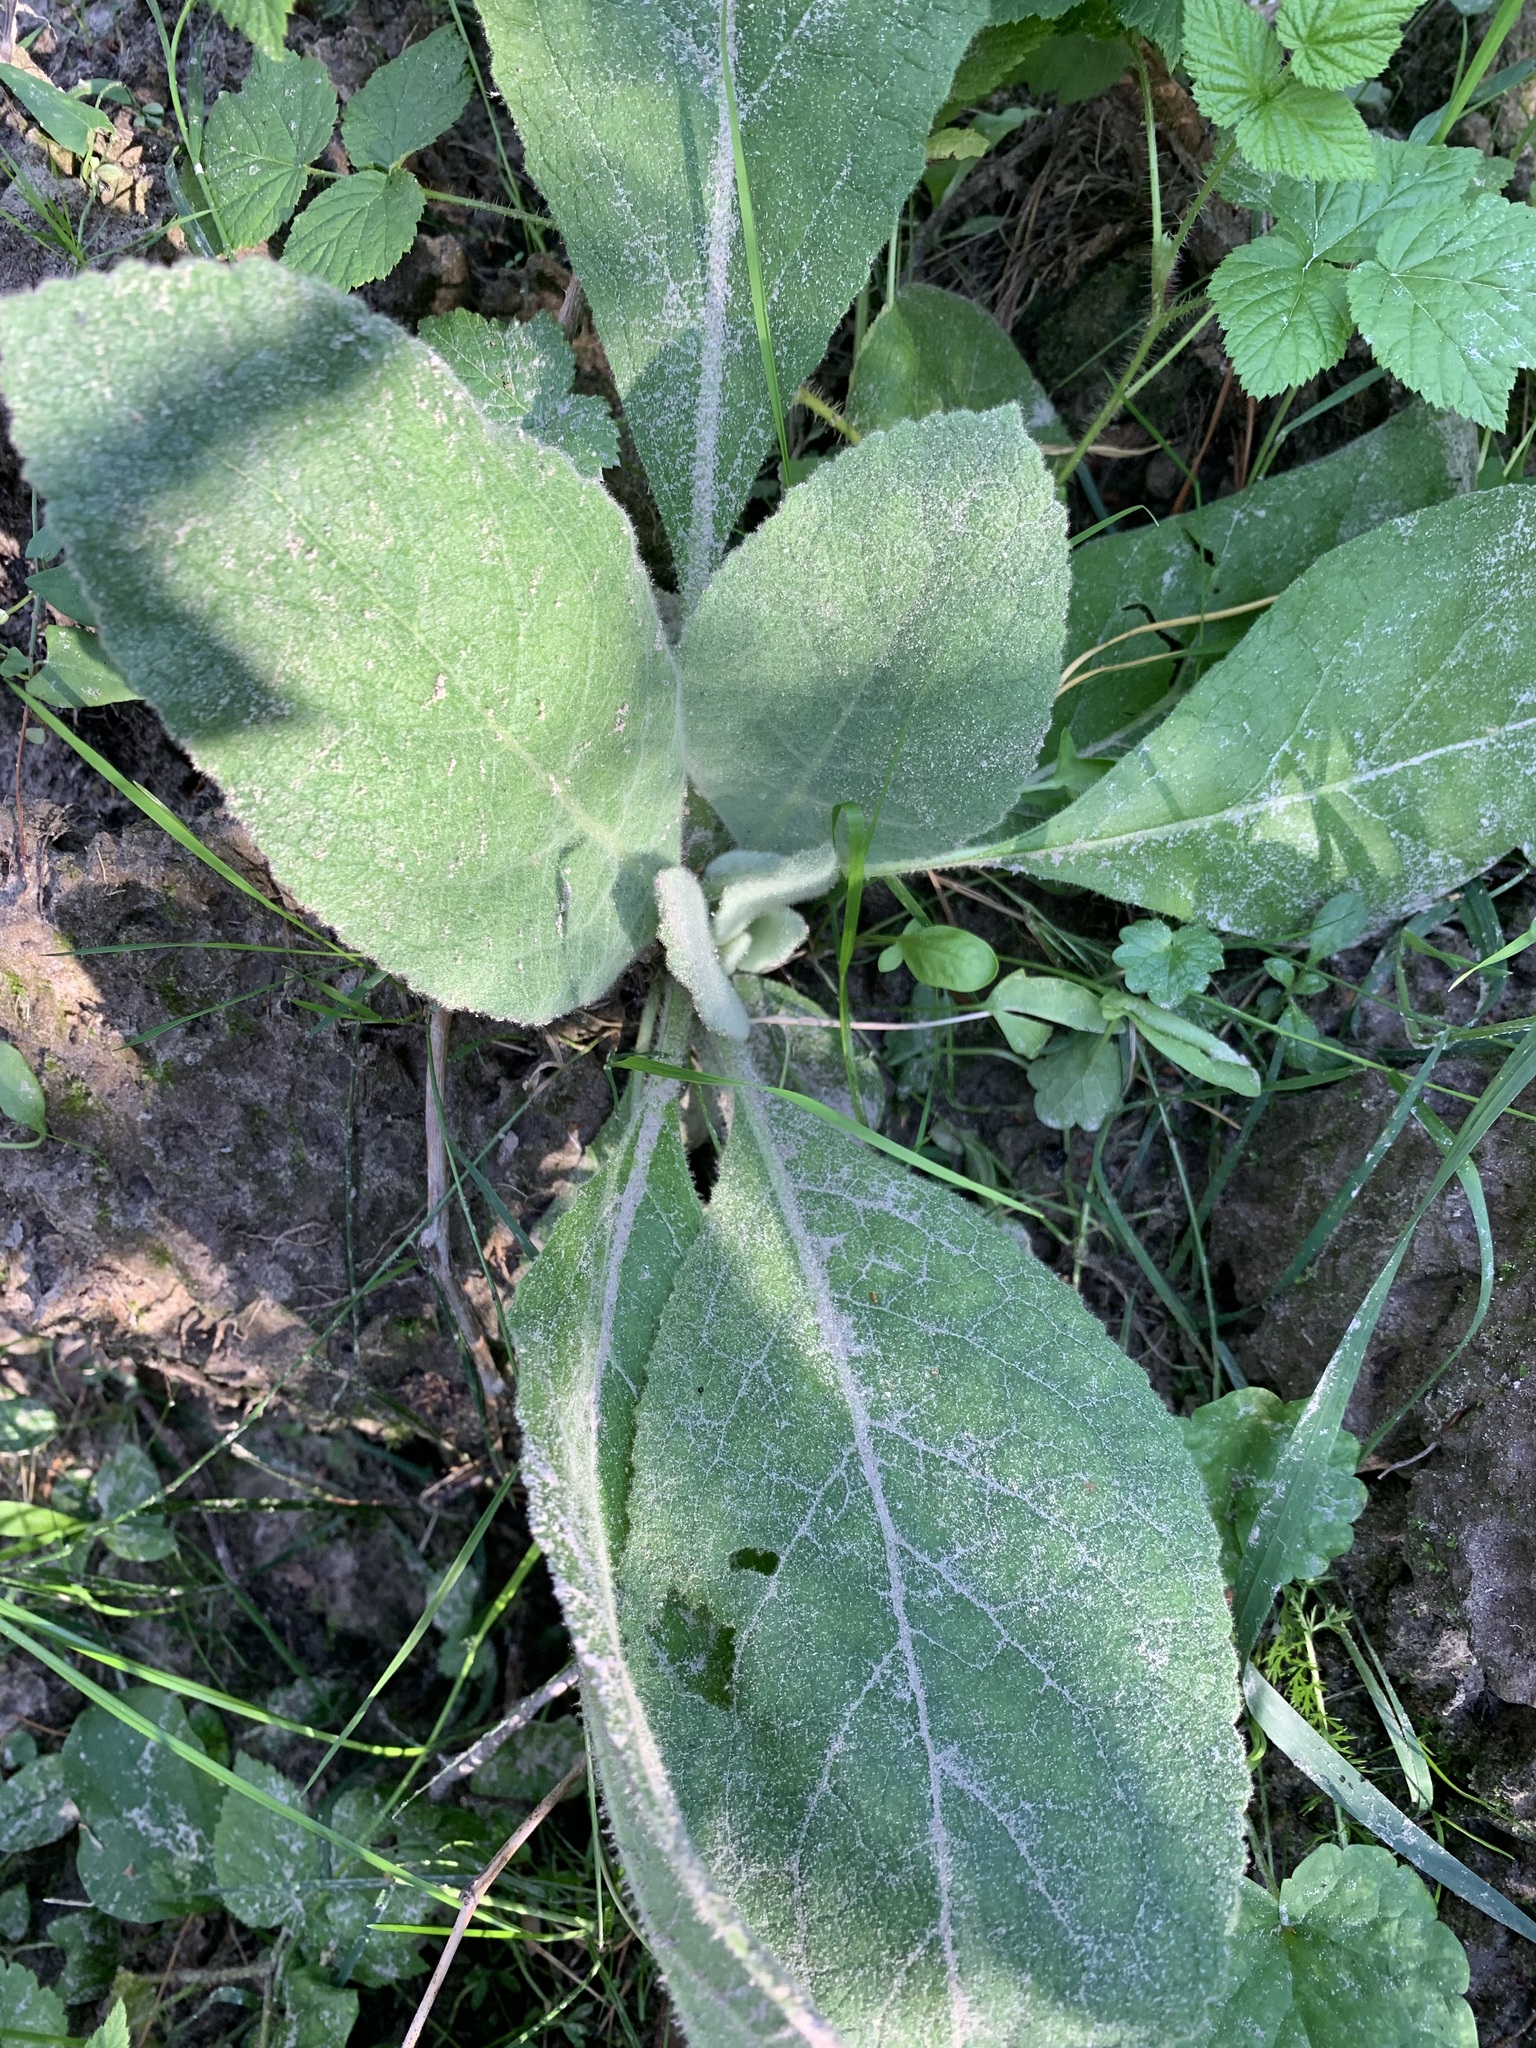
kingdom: Plantae
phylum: Tracheophyta
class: Magnoliopsida
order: Lamiales
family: Scrophulariaceae
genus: Verbascum
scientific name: Verbascum thapsus
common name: Common mullein
